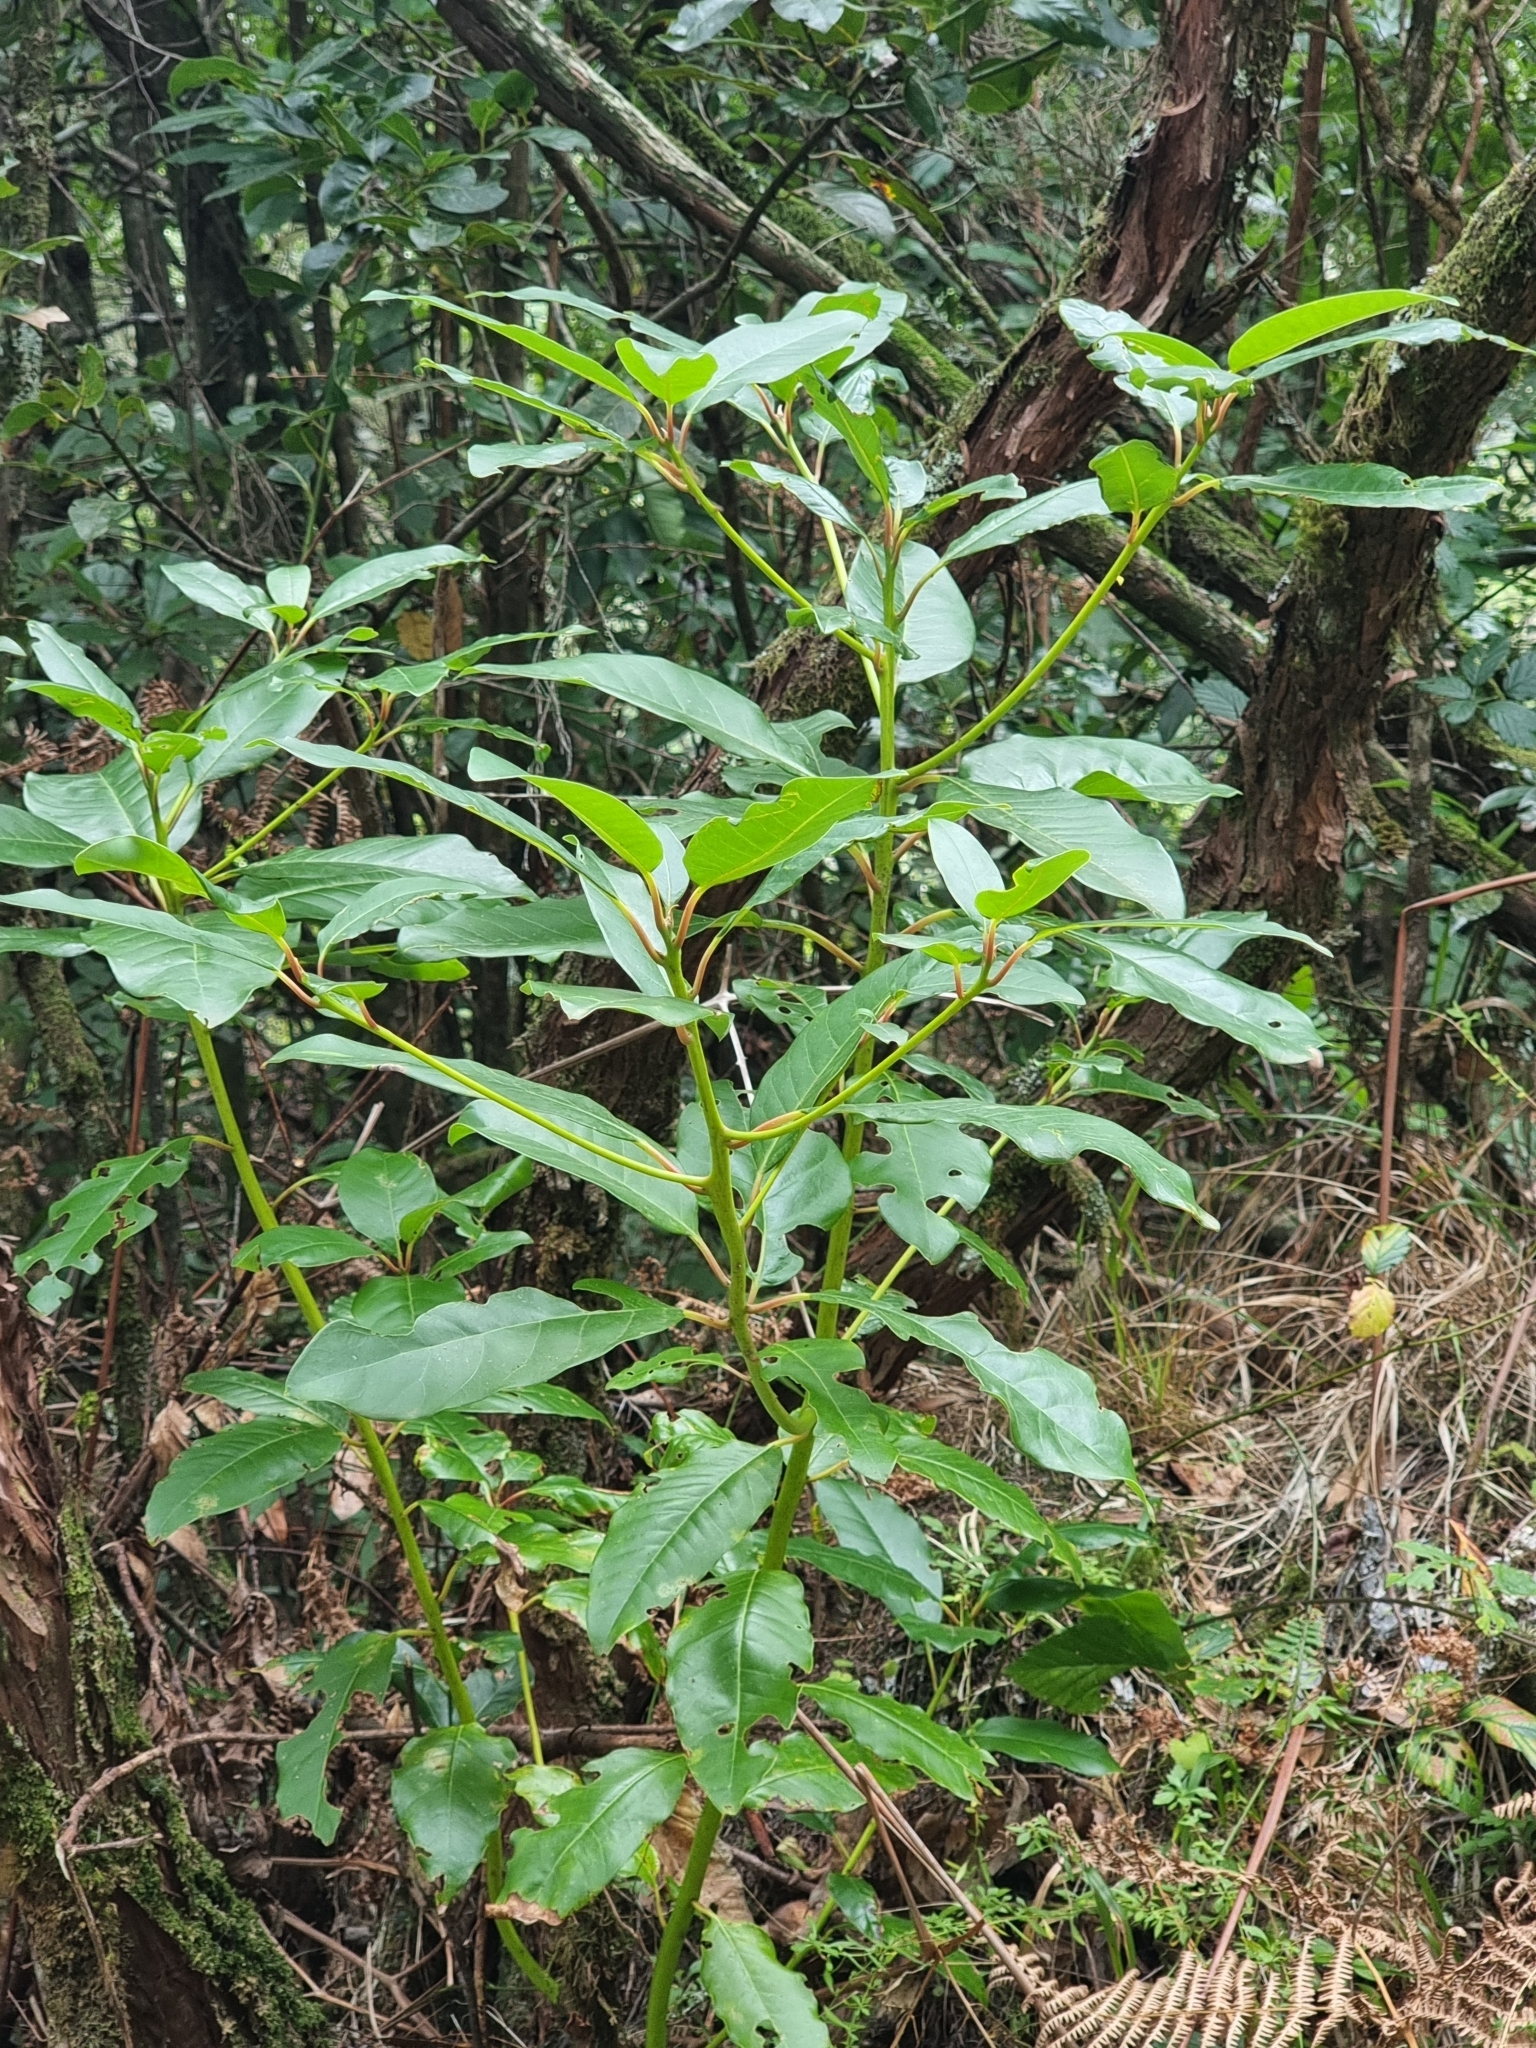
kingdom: Plantae
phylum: Tracheophyta
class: Magnoliopsida
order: Laurales
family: Lauraceae
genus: Persea
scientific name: Persea indica
